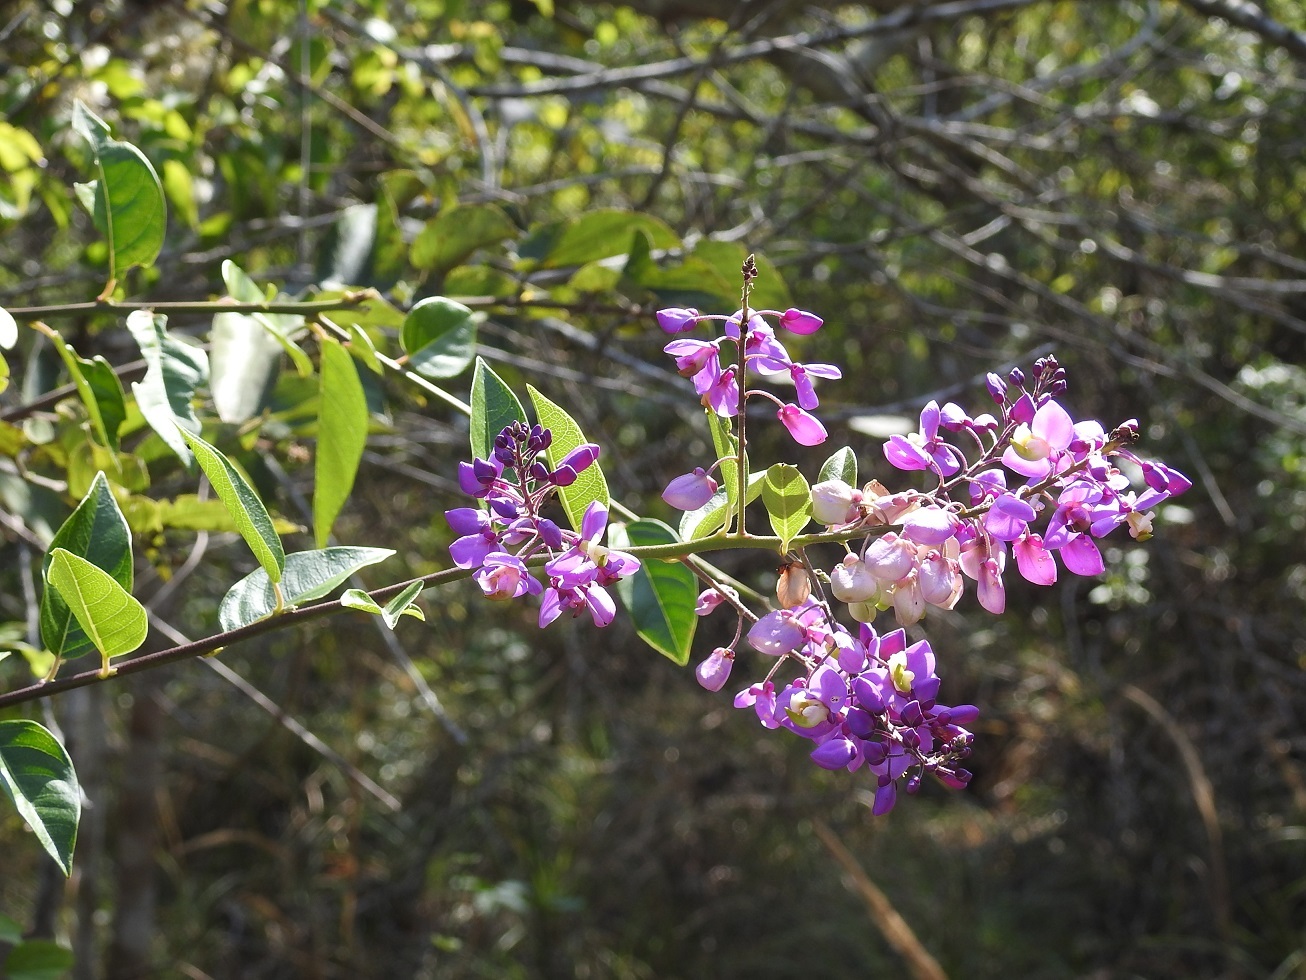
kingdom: Plantae
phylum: Tracheophyta
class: Magnoliopsida
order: Fabales
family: Polygalaceae
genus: Asemeia
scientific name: Asemeia floribunda
